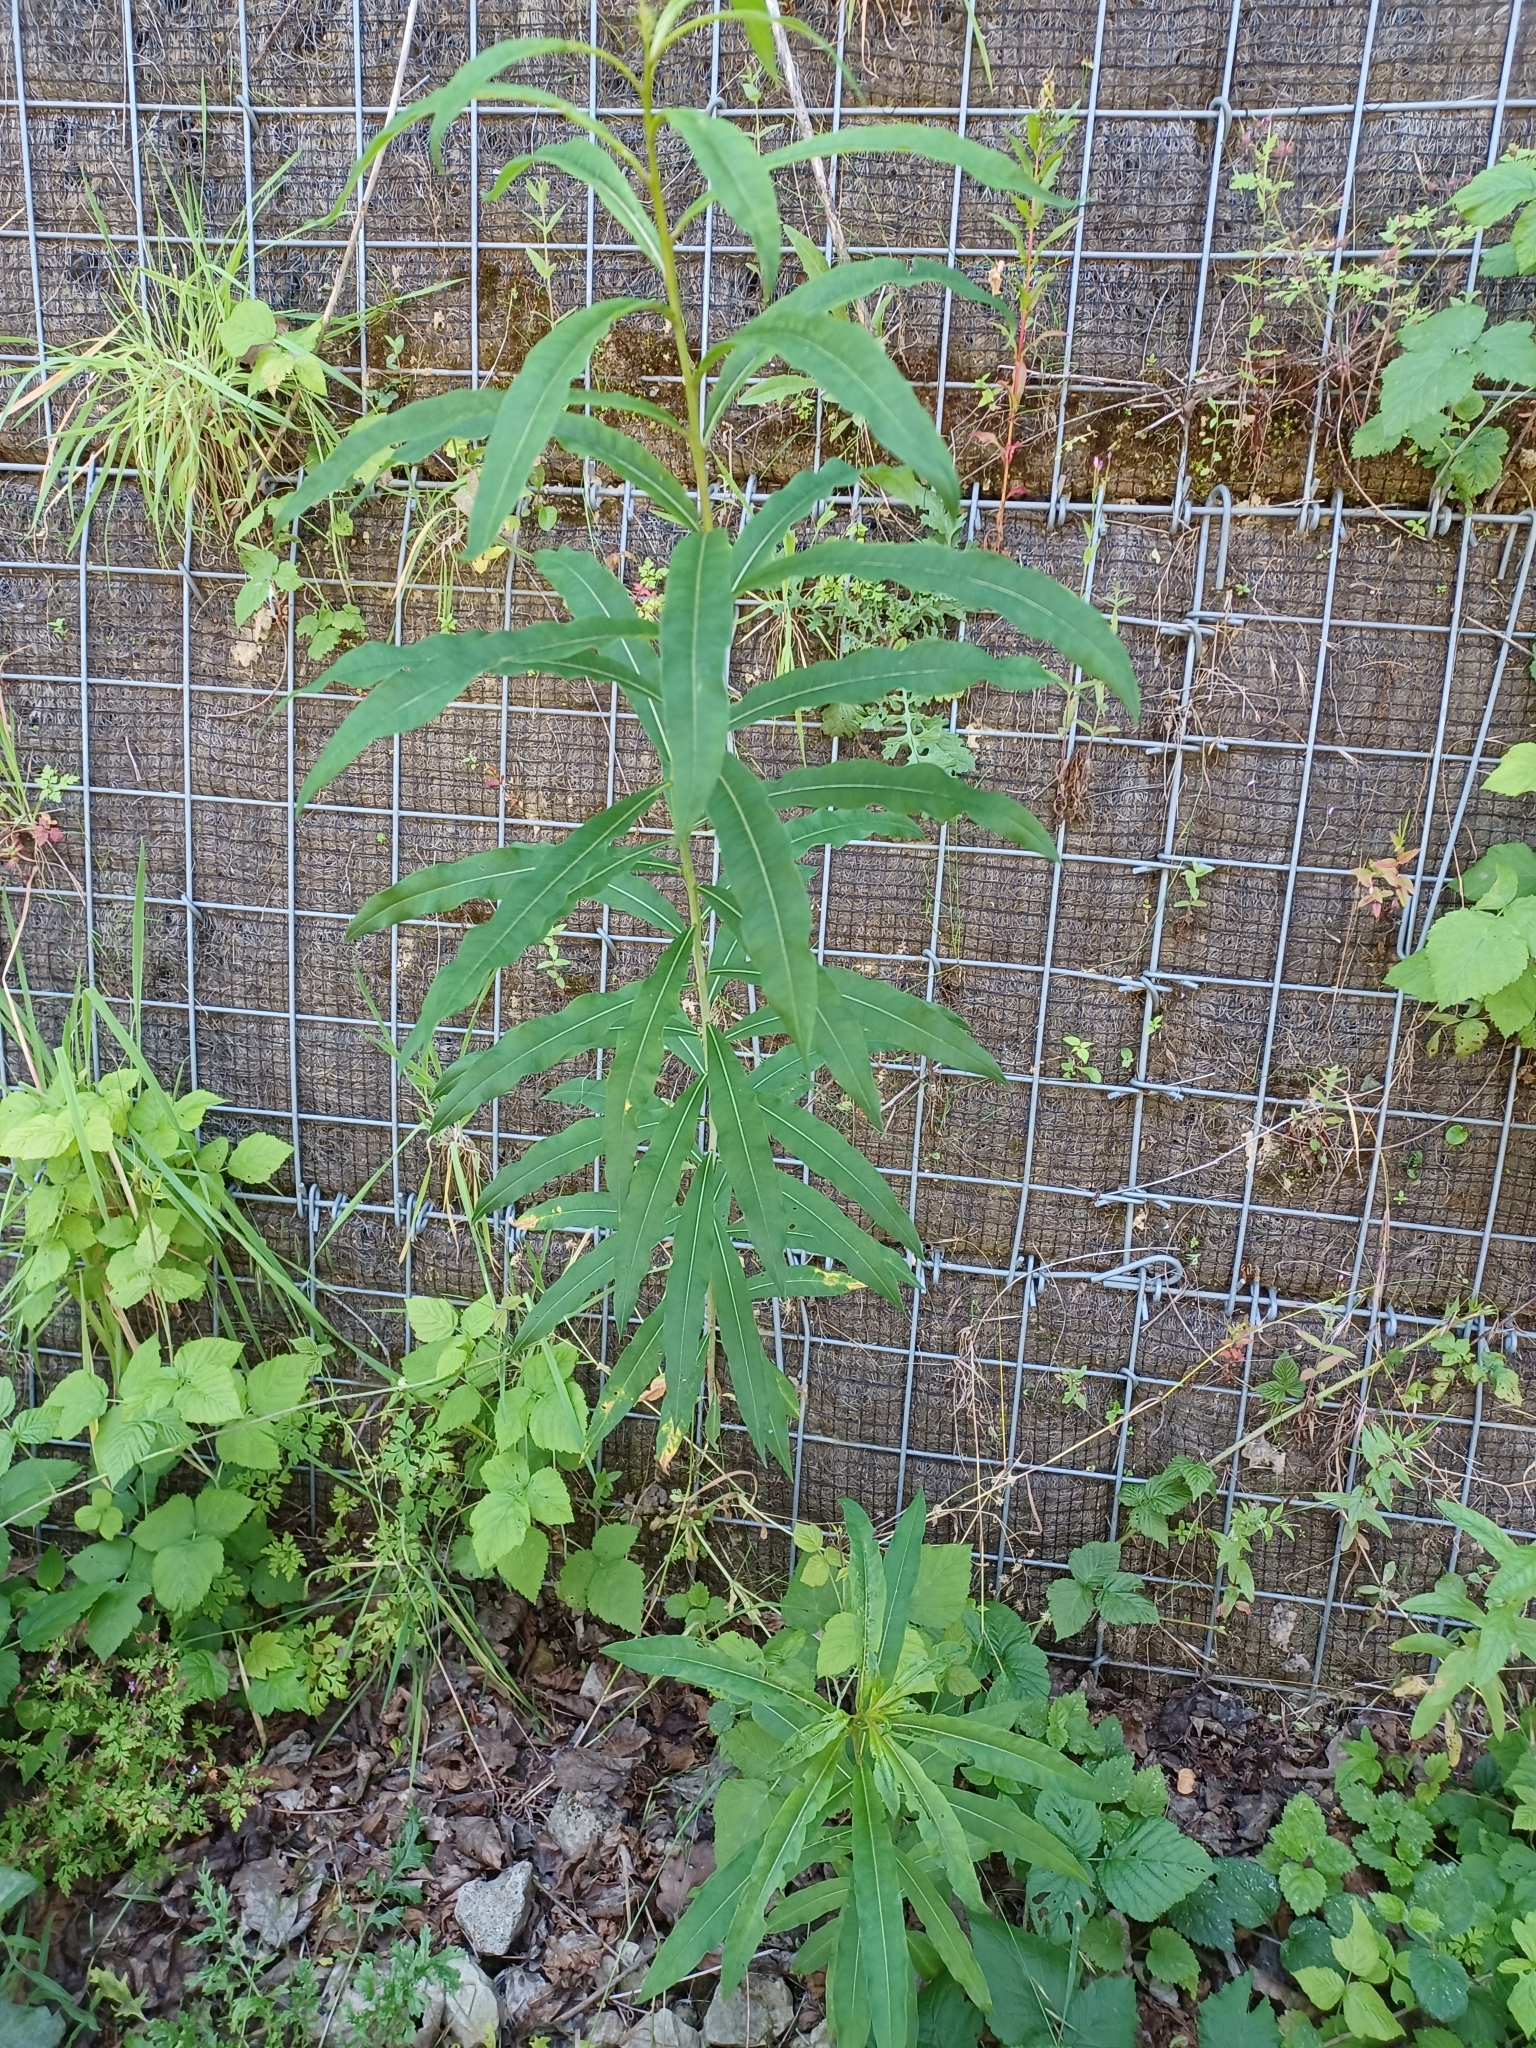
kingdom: Plantae
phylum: Tracheophyta
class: Magnoliopsida
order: Myrtales
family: Onagraceae
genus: Chamaenerion
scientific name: Chamaenerion angustifolium
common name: Fireweed
